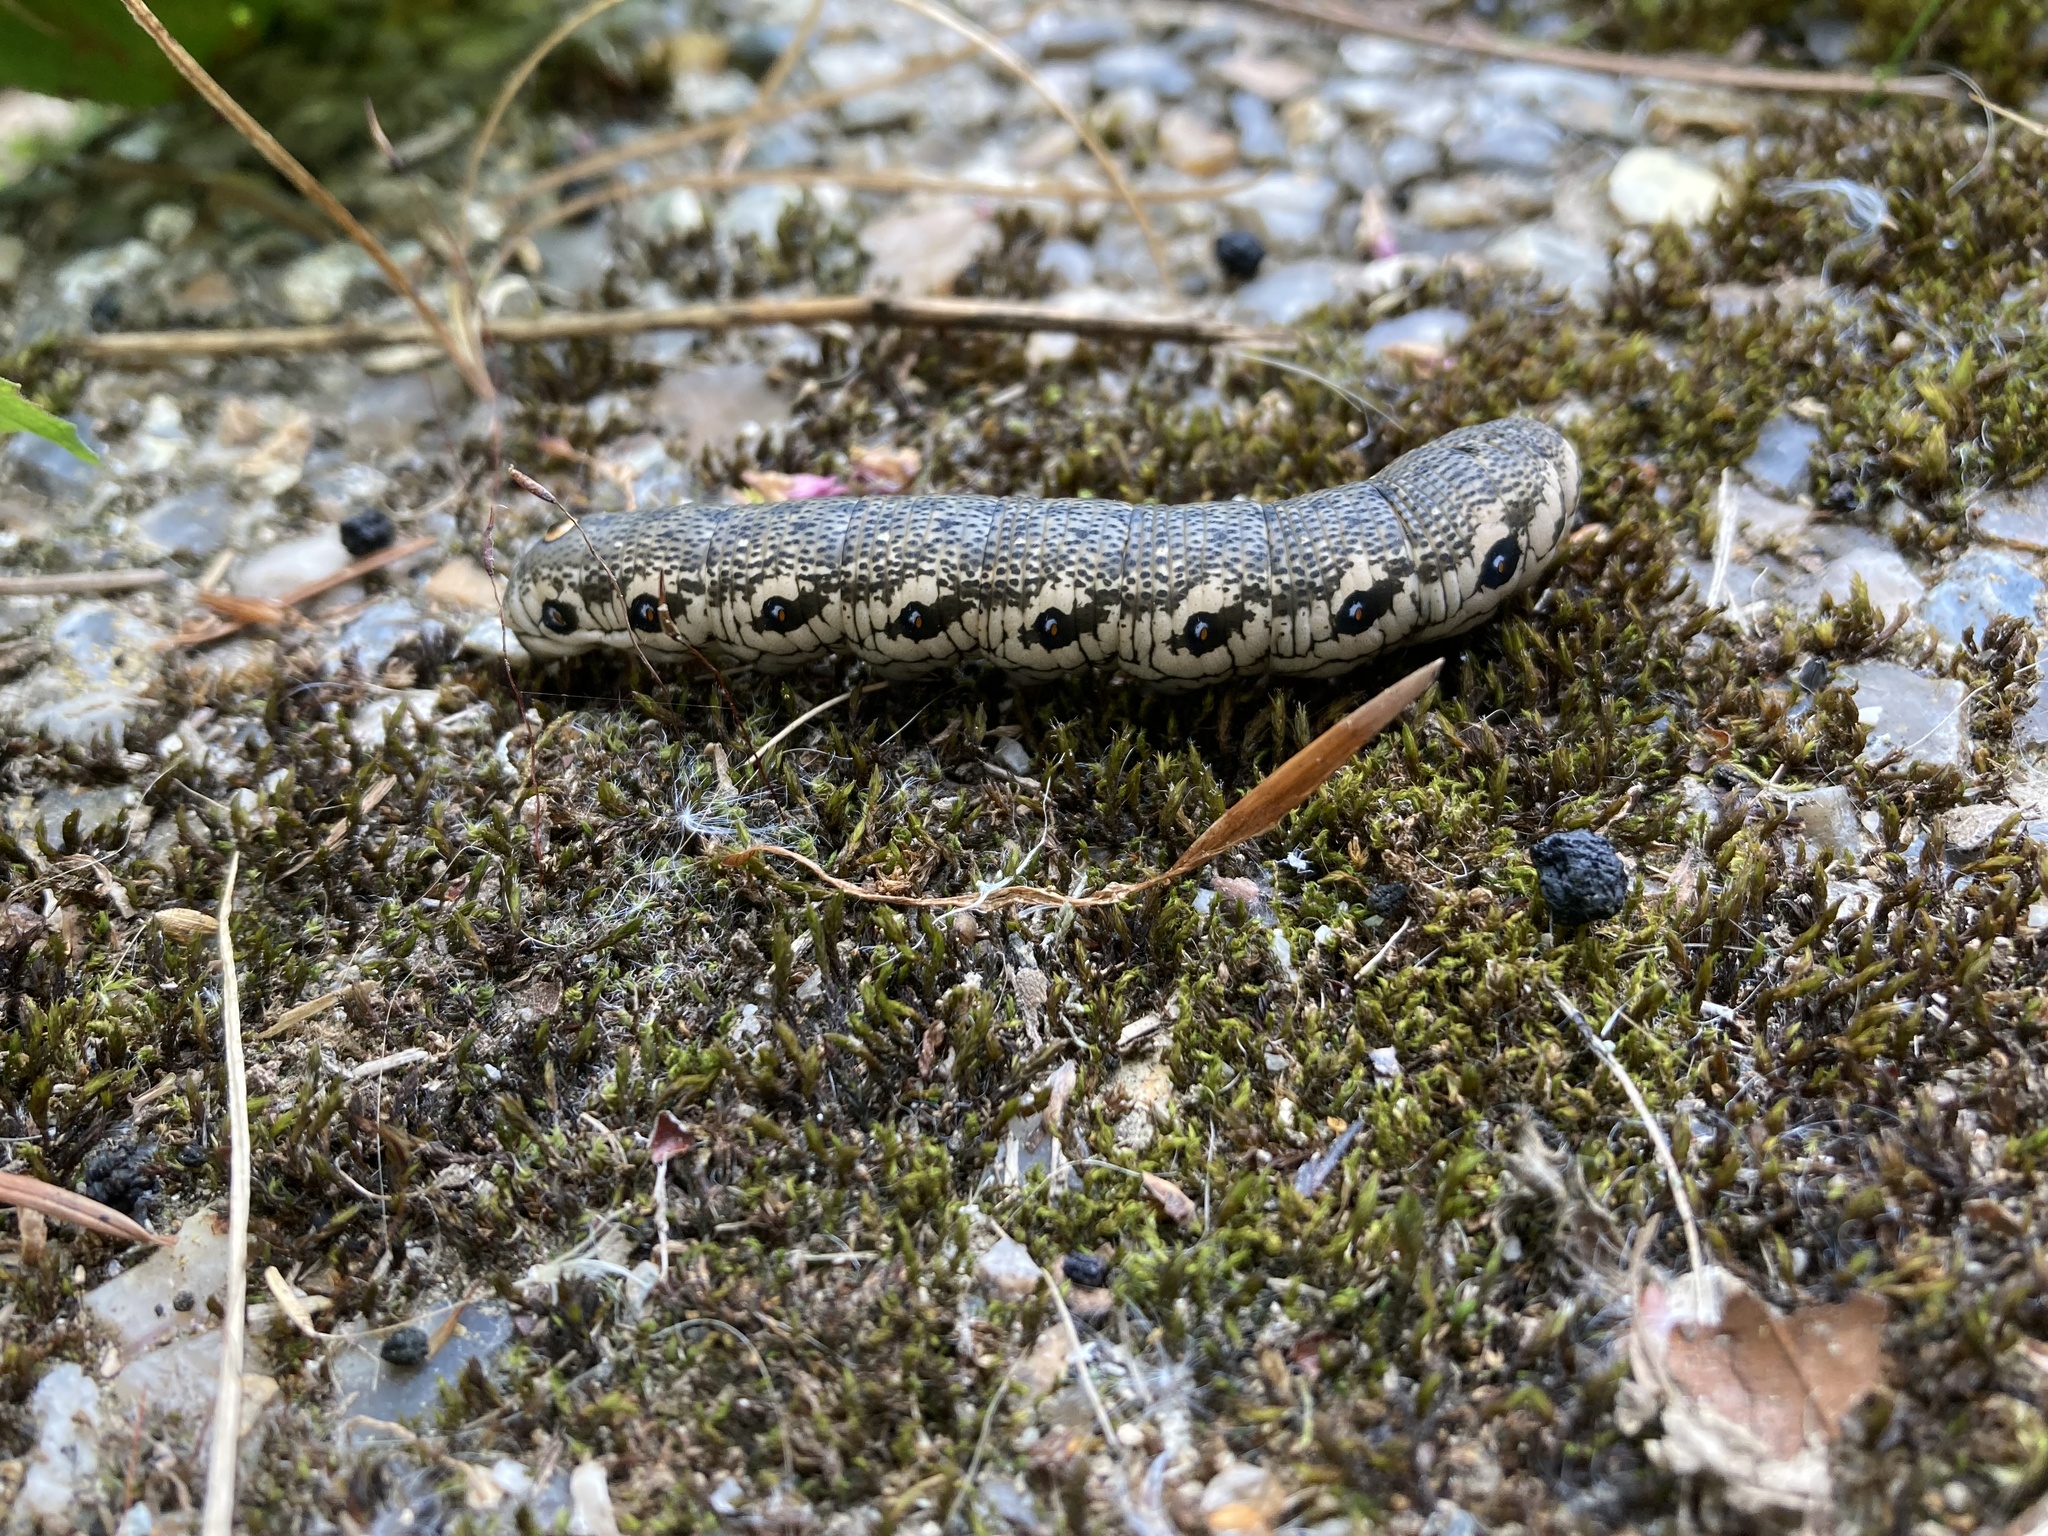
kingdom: Animalia
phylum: Arthropoda
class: Insecta
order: Lepidoptera
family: Sphingidae
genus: Proserpinus
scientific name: Proserpinus proserpina
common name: Willowherb hawkmoth
